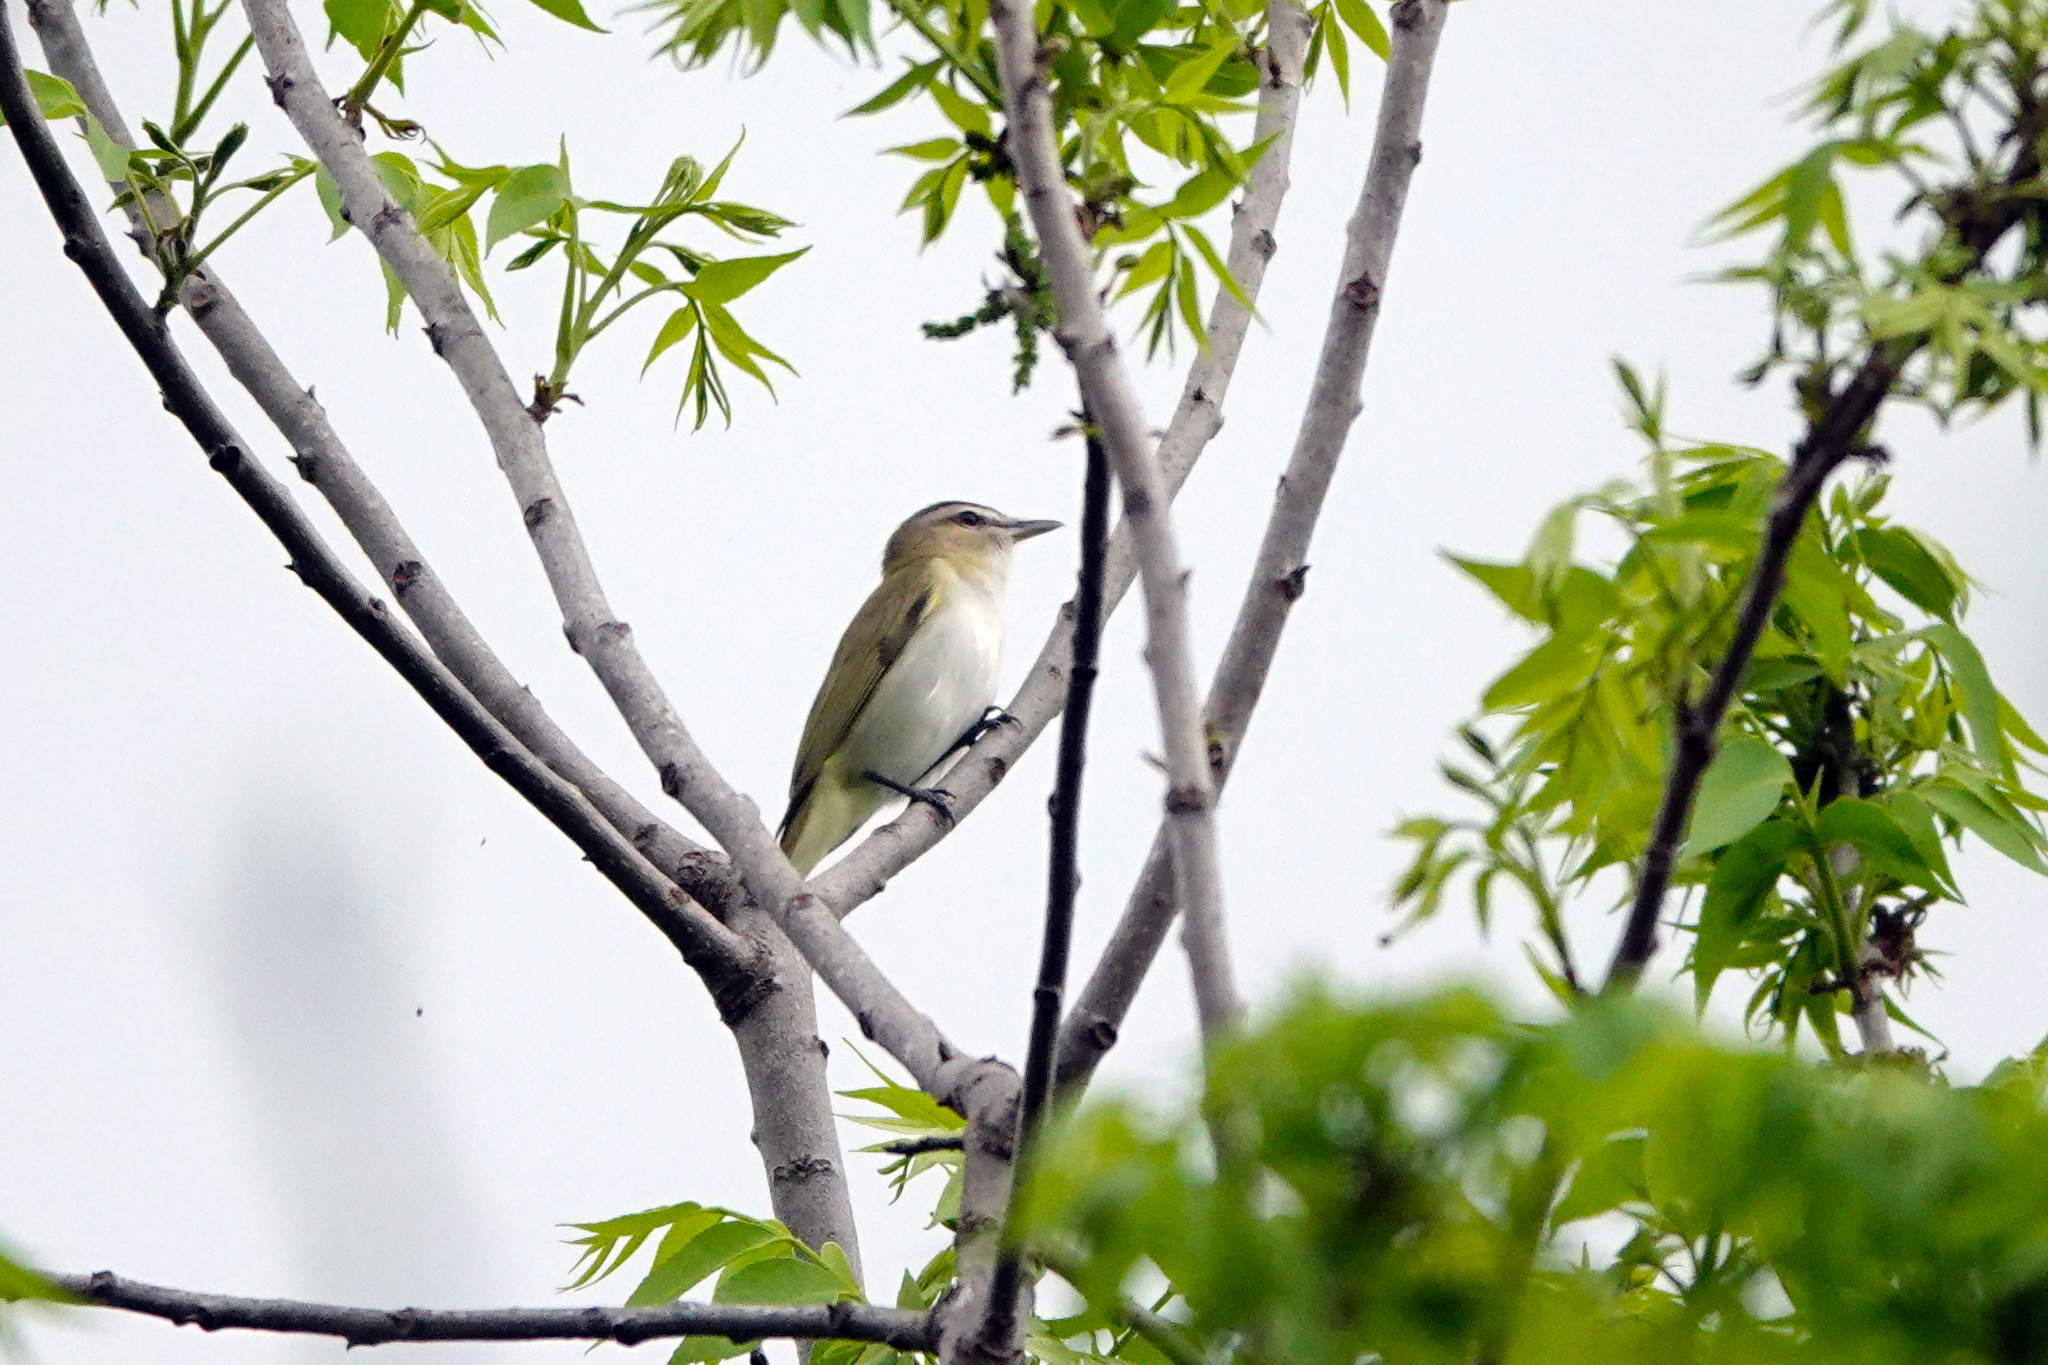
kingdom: Animalia
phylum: Chordata
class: Aves
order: Passeriformes
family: Vireonidae
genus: Vireo
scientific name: Vireo olivaceus
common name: Red-eyed vireo
